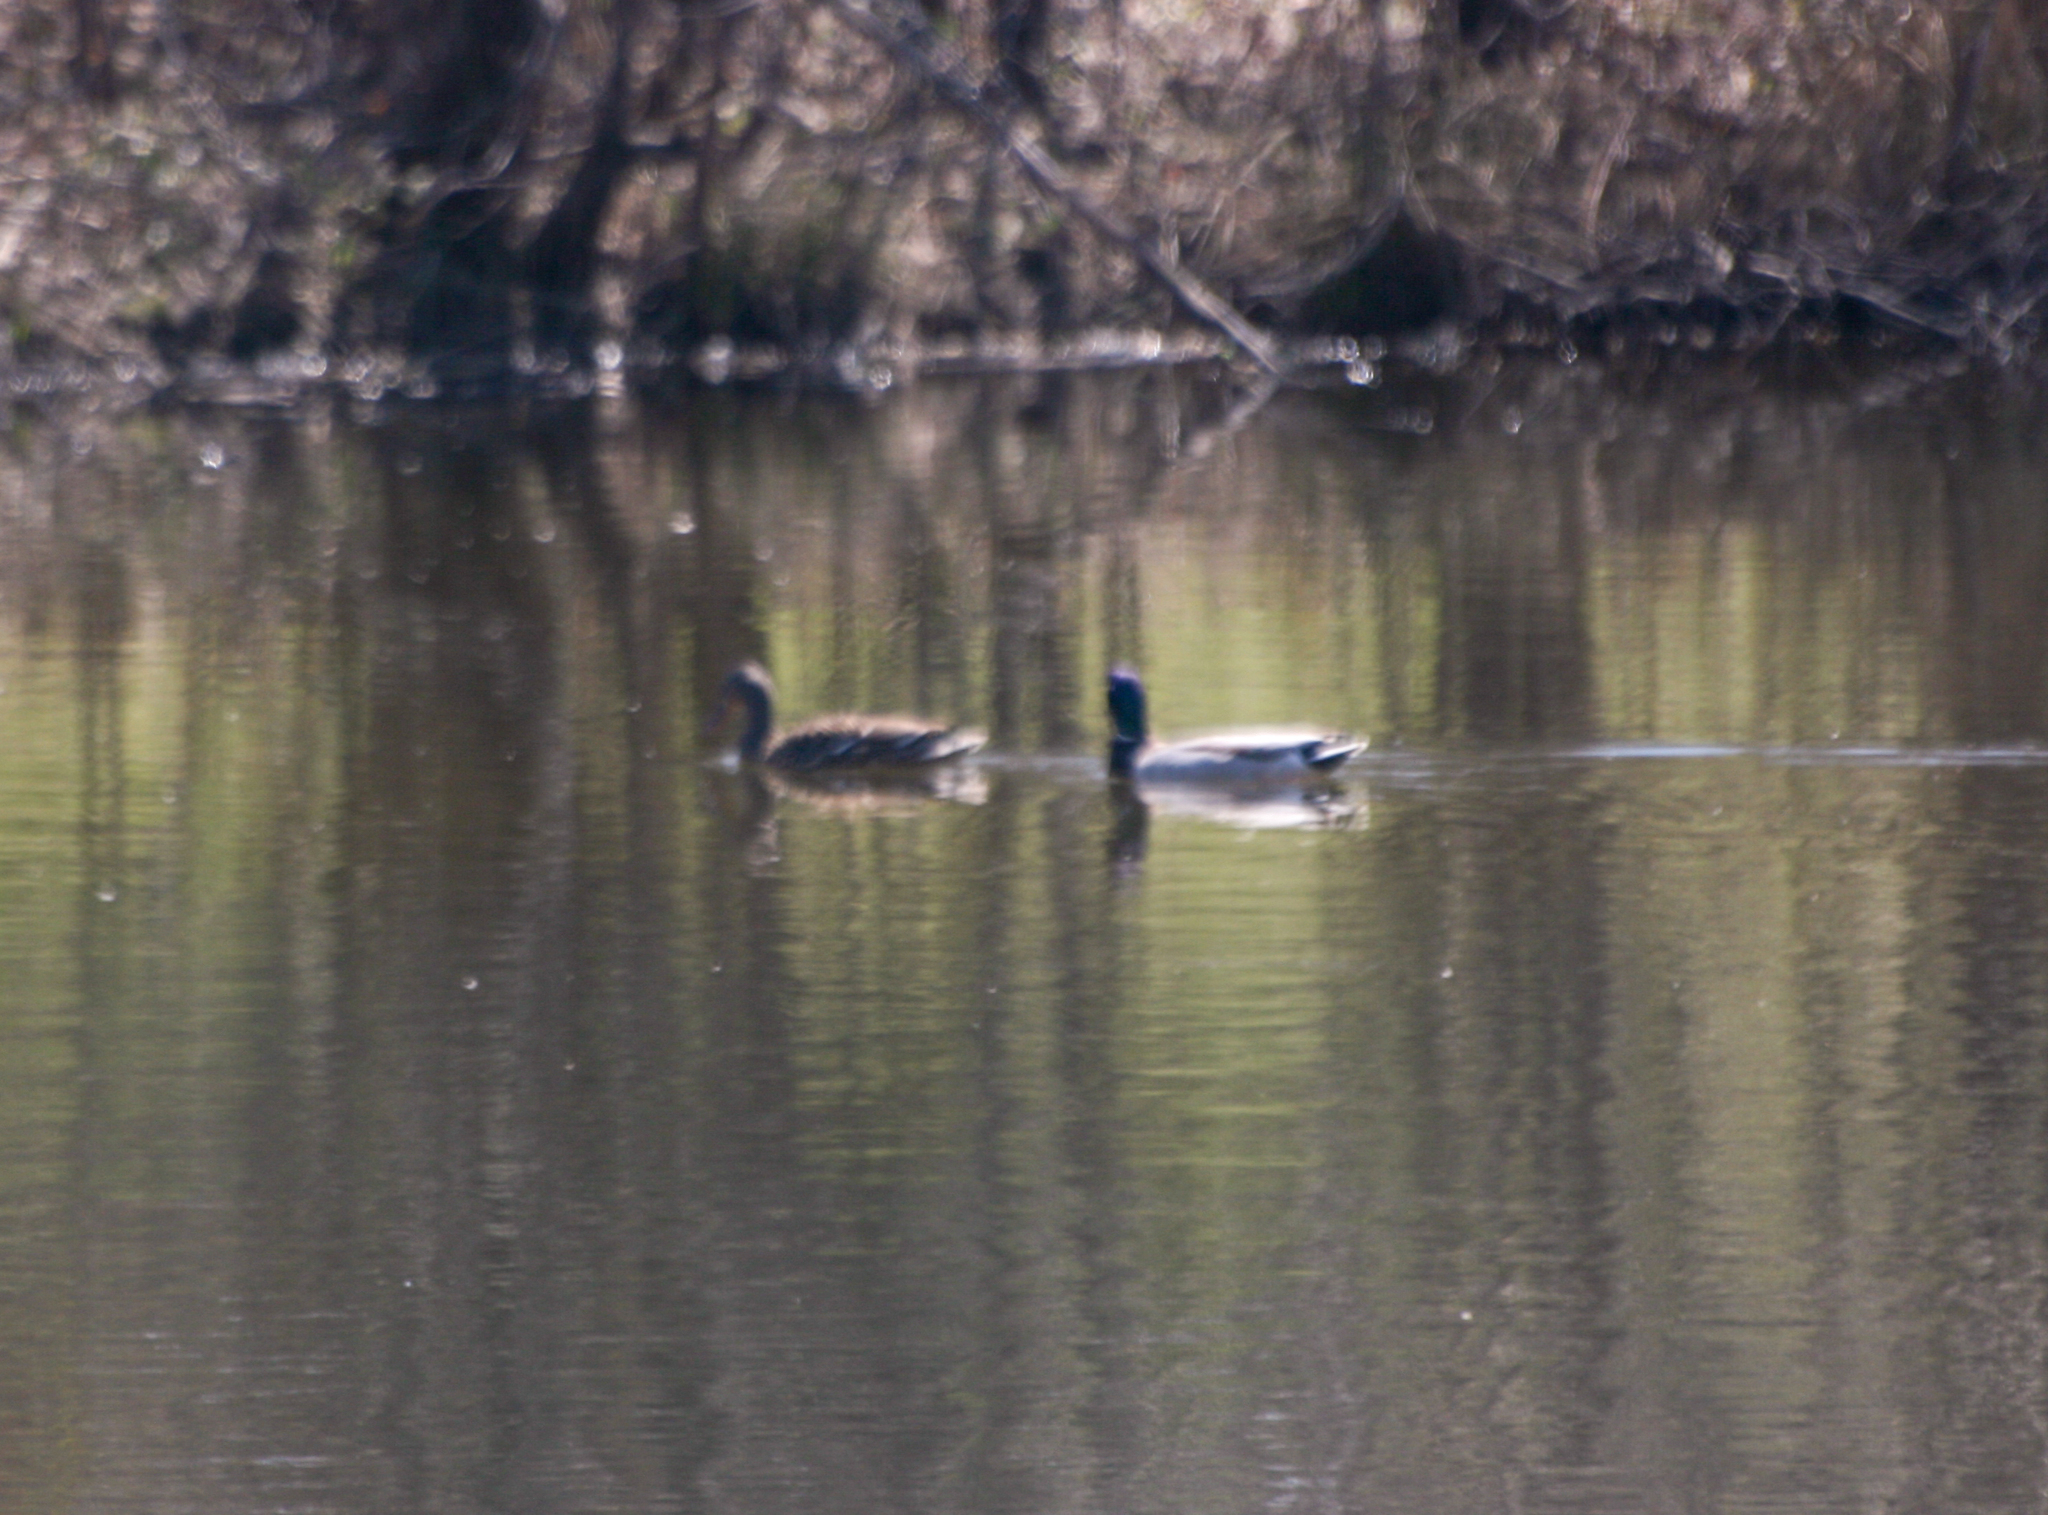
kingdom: Animalia
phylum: Chordata
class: Aves
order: Anseriformes
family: Anatidae
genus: Anas
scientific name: Anas platyrhynchos
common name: Mallard
